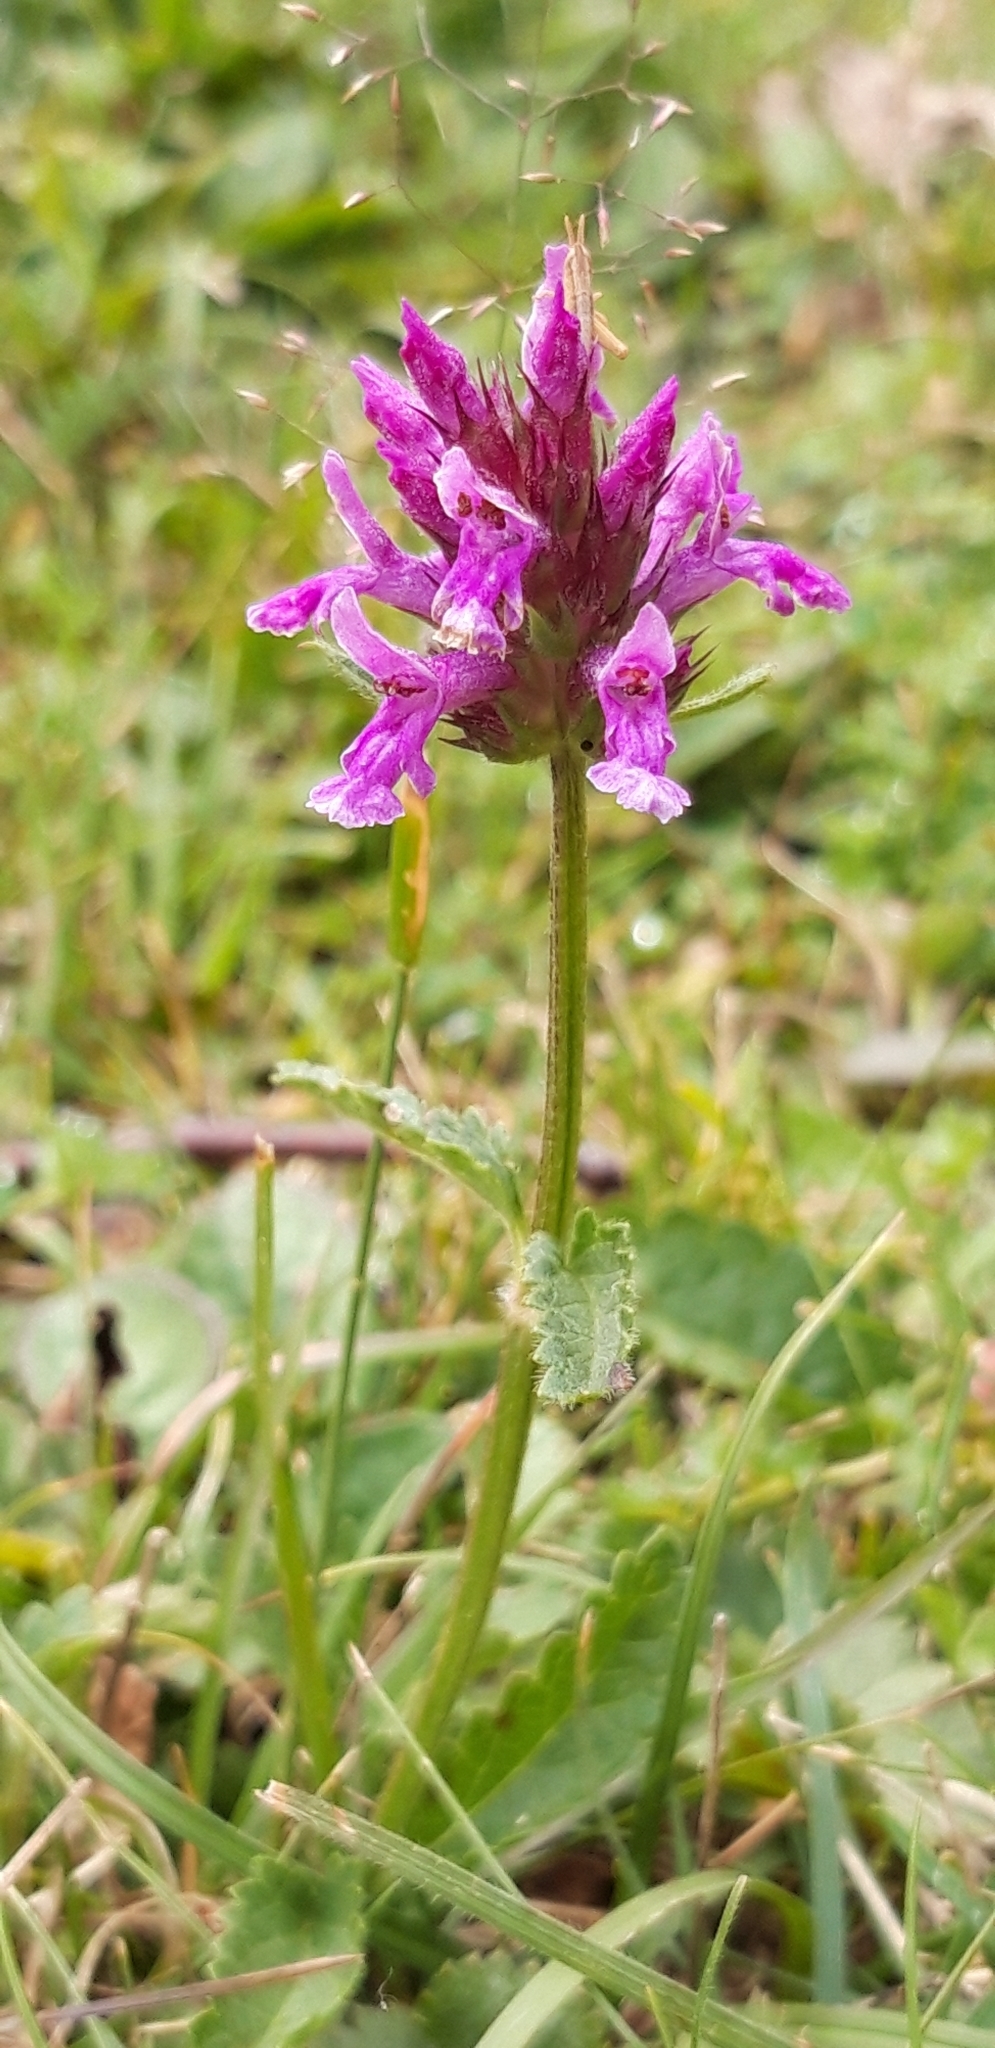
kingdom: Plantae
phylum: Tracheophyta
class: Magnoliopsida
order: Lamiales
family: Lamiaceae
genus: Betonica
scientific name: Betonica officinalis
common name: Bishop's-wort
